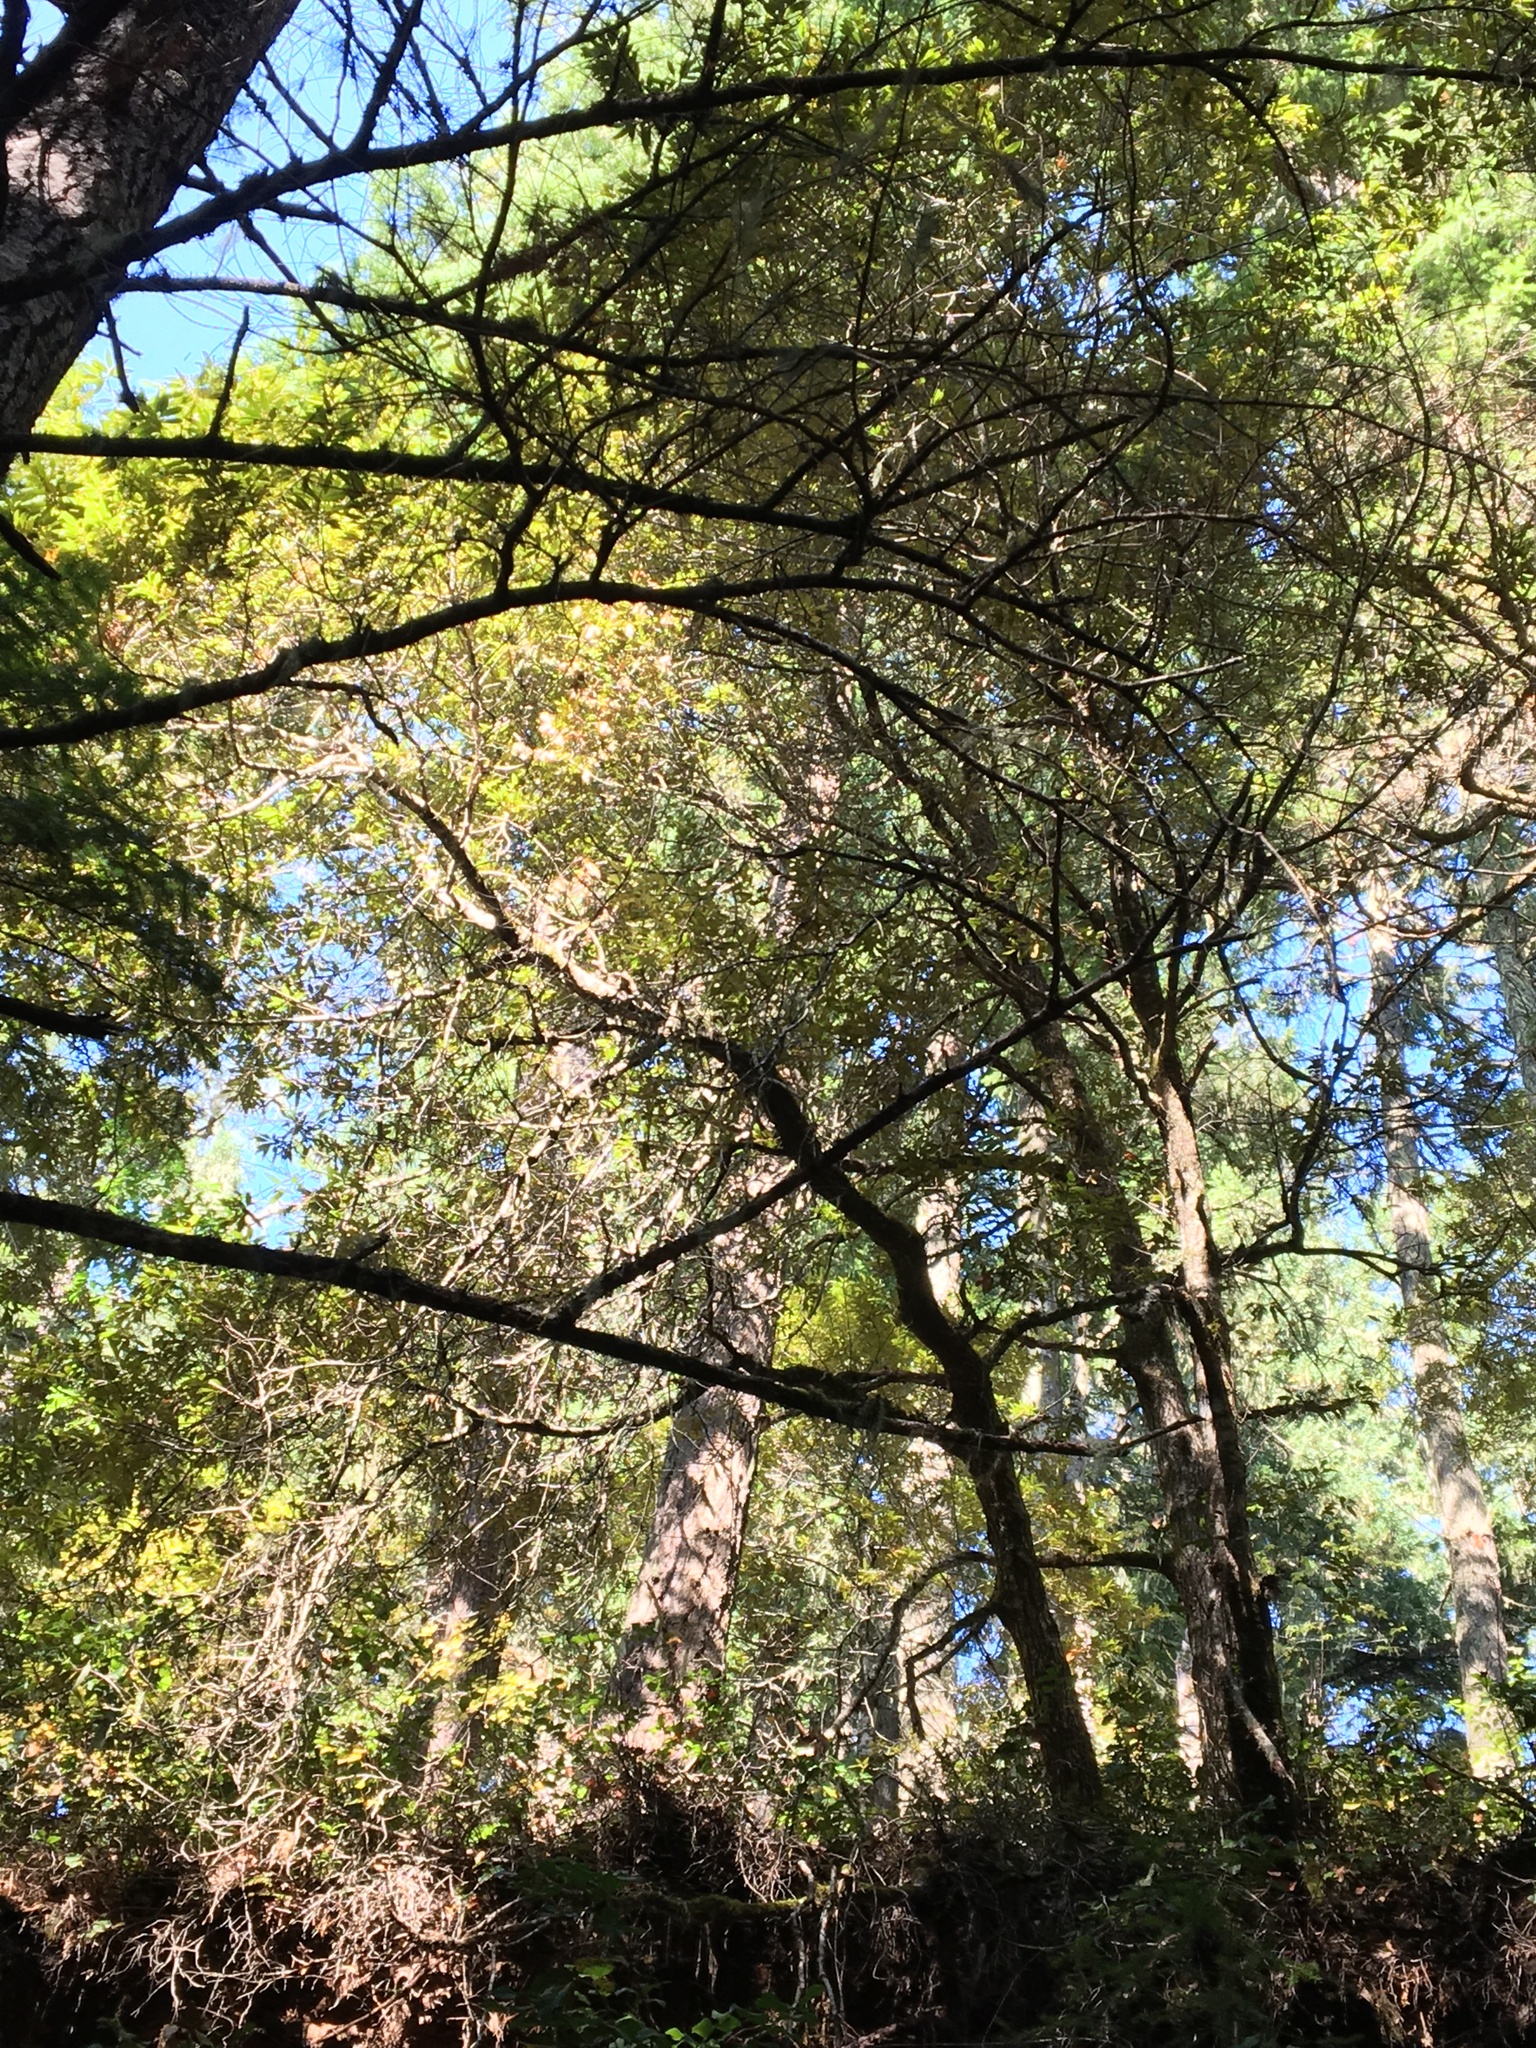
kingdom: Plantae
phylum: Tracheophyta
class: Magnoliopsida
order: Fagales
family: Fagaceae
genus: Chrysolepis
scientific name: Chrysolepis chrysophylla
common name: Giant chinquapin
